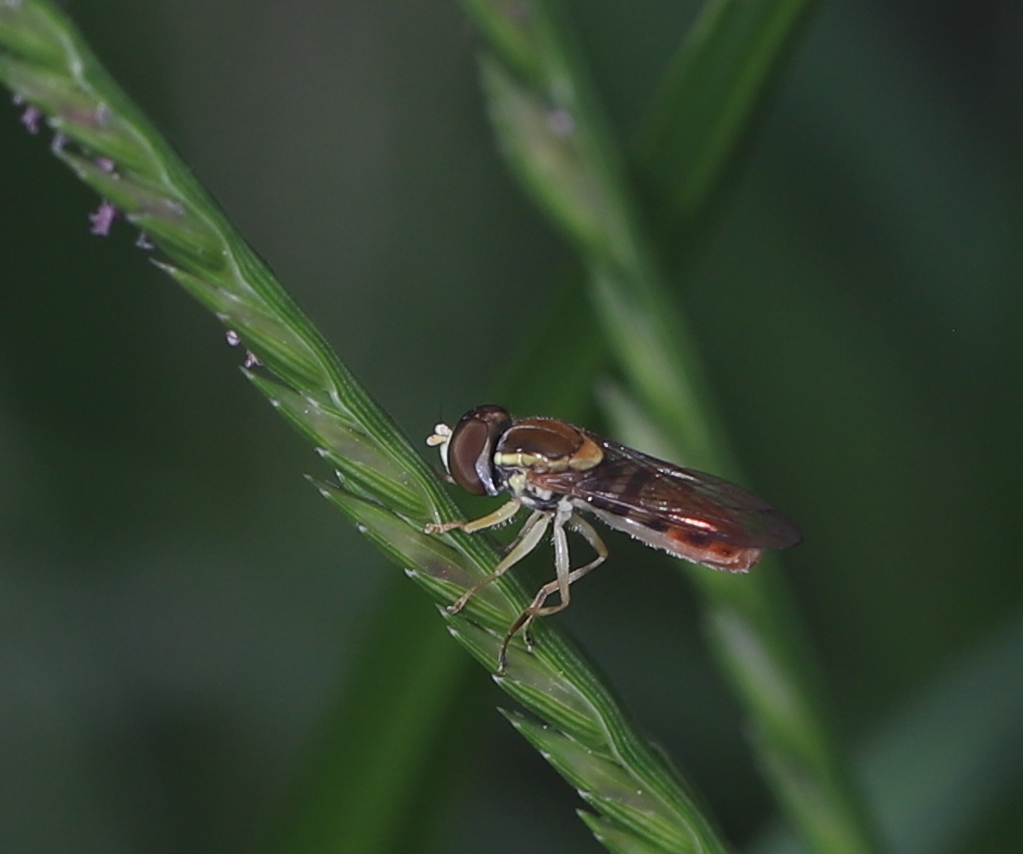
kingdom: Animalia
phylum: Arthropoda
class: Insecta
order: Diptera
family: Syrphidae
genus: Toxomerus
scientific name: Toxomerus marginatus
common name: Syrphid fly
